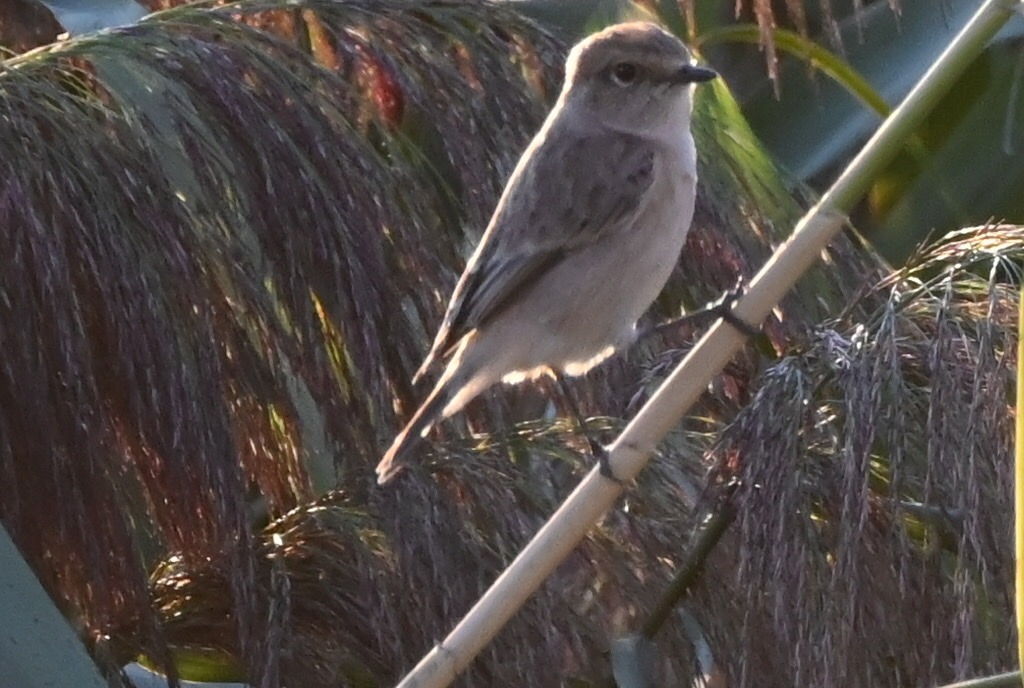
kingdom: Animalia
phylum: Chordata
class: Aves
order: Passeriformes
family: Muscicapidae
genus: Saxicola
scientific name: Saxicola maurus
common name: Siberian stonechat
